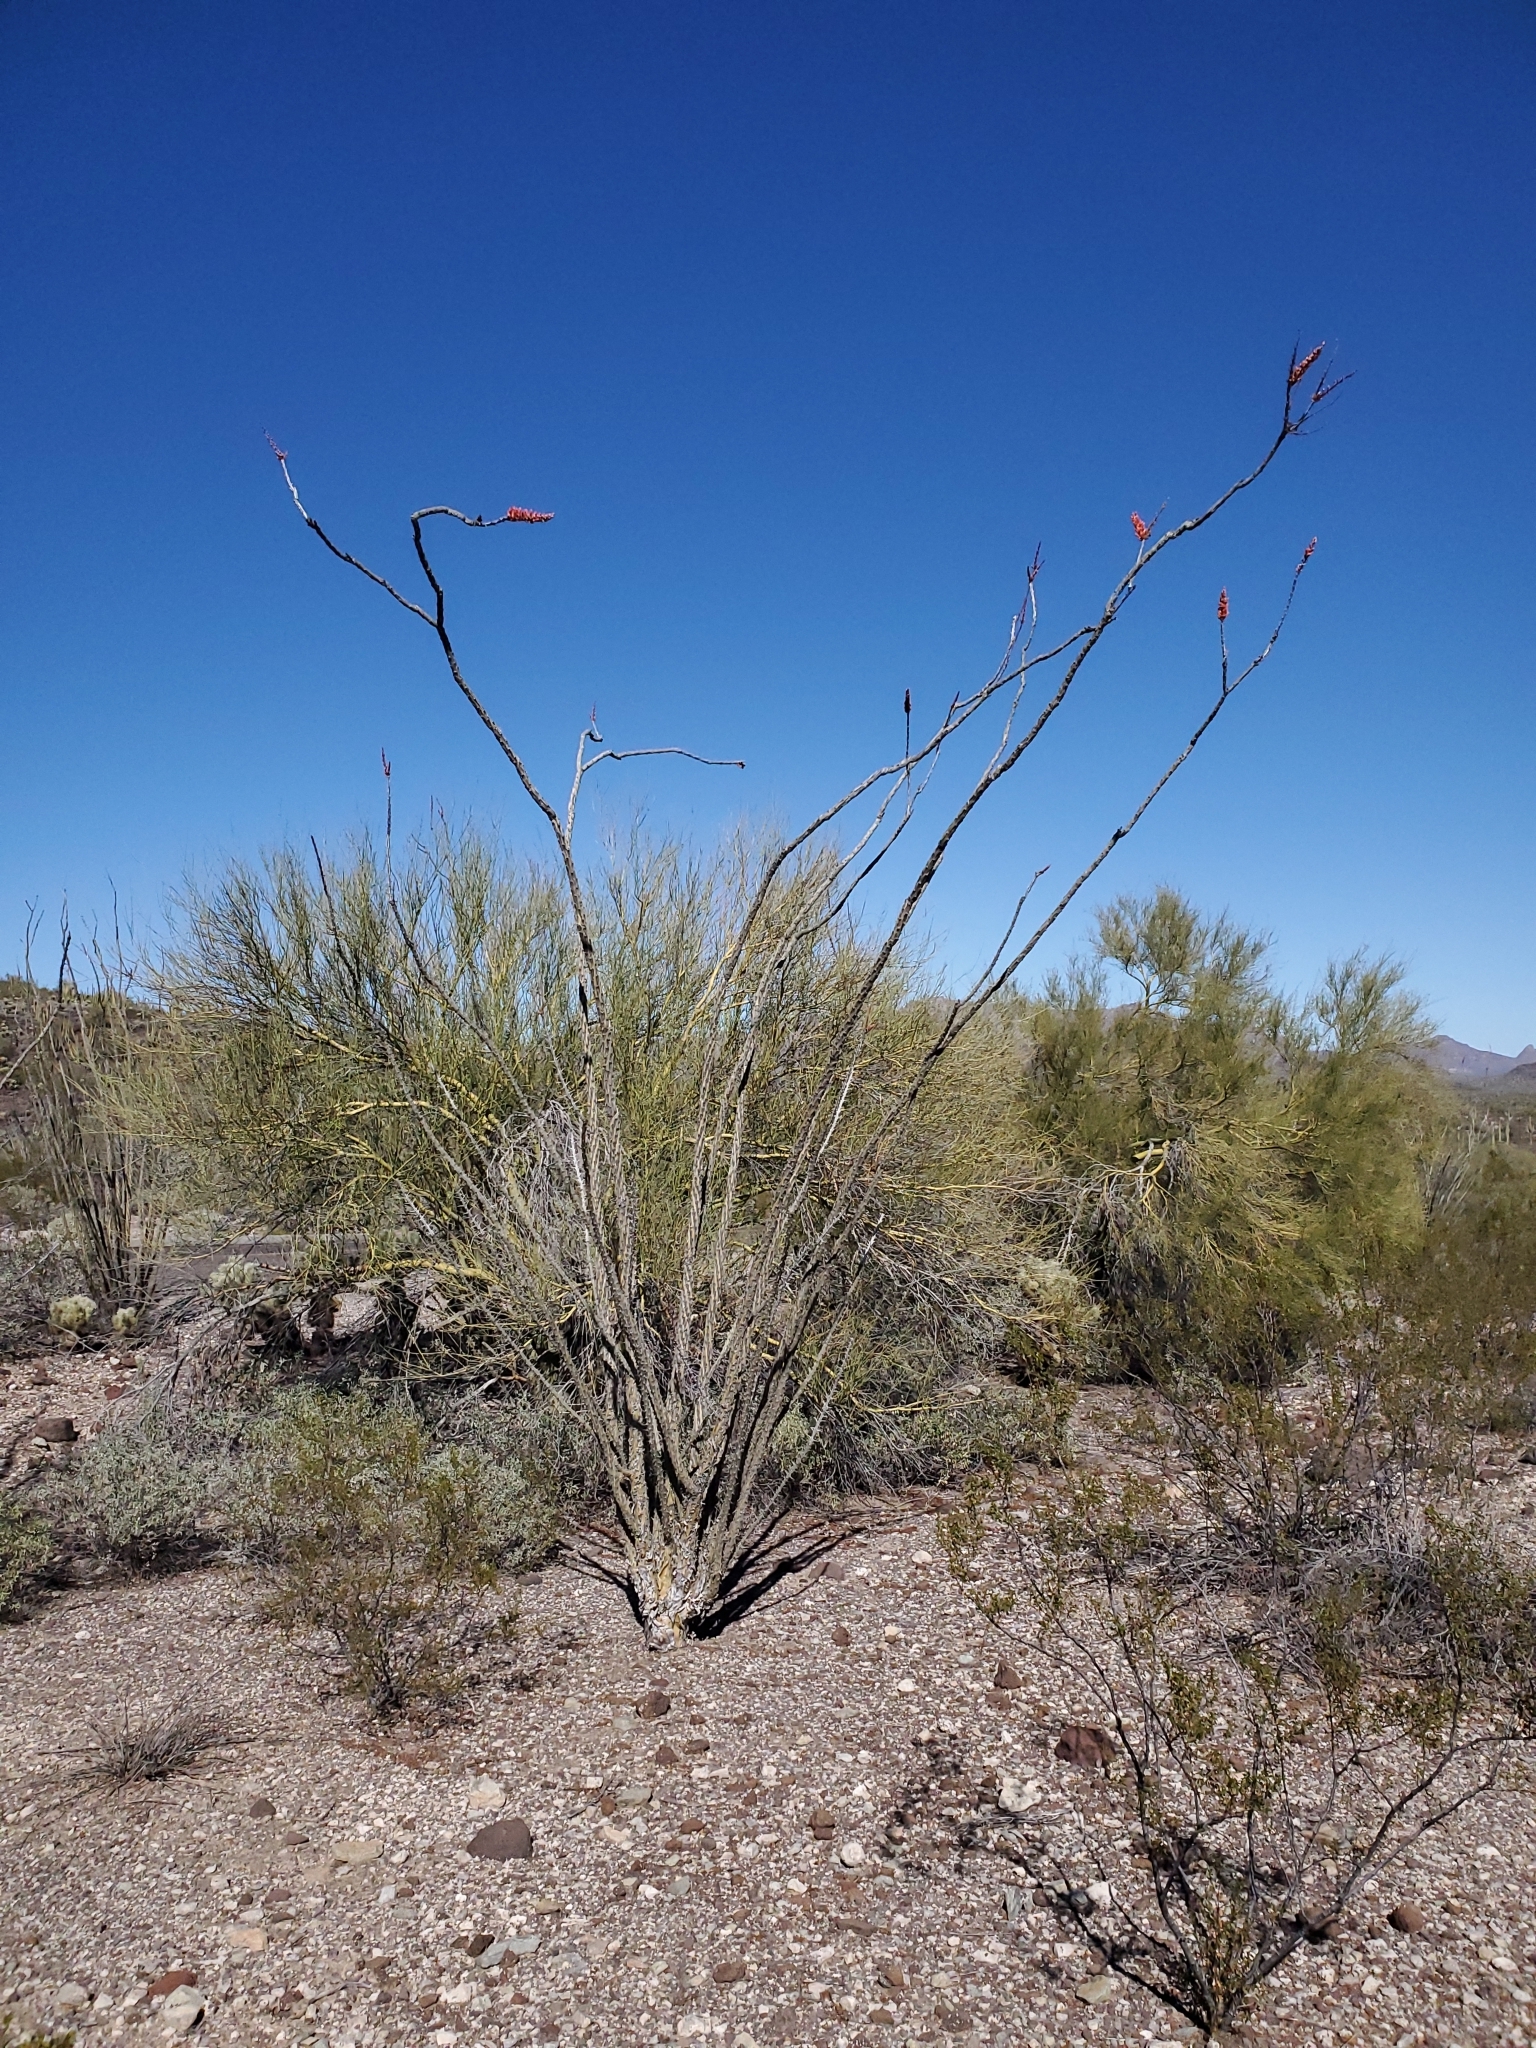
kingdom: Plantae
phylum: Tracheophyta
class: Magnoliopsida
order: Ericales
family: Fouquieriaceae
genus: Fouquieria
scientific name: Fouquieria splendens
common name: Vine-cactus
